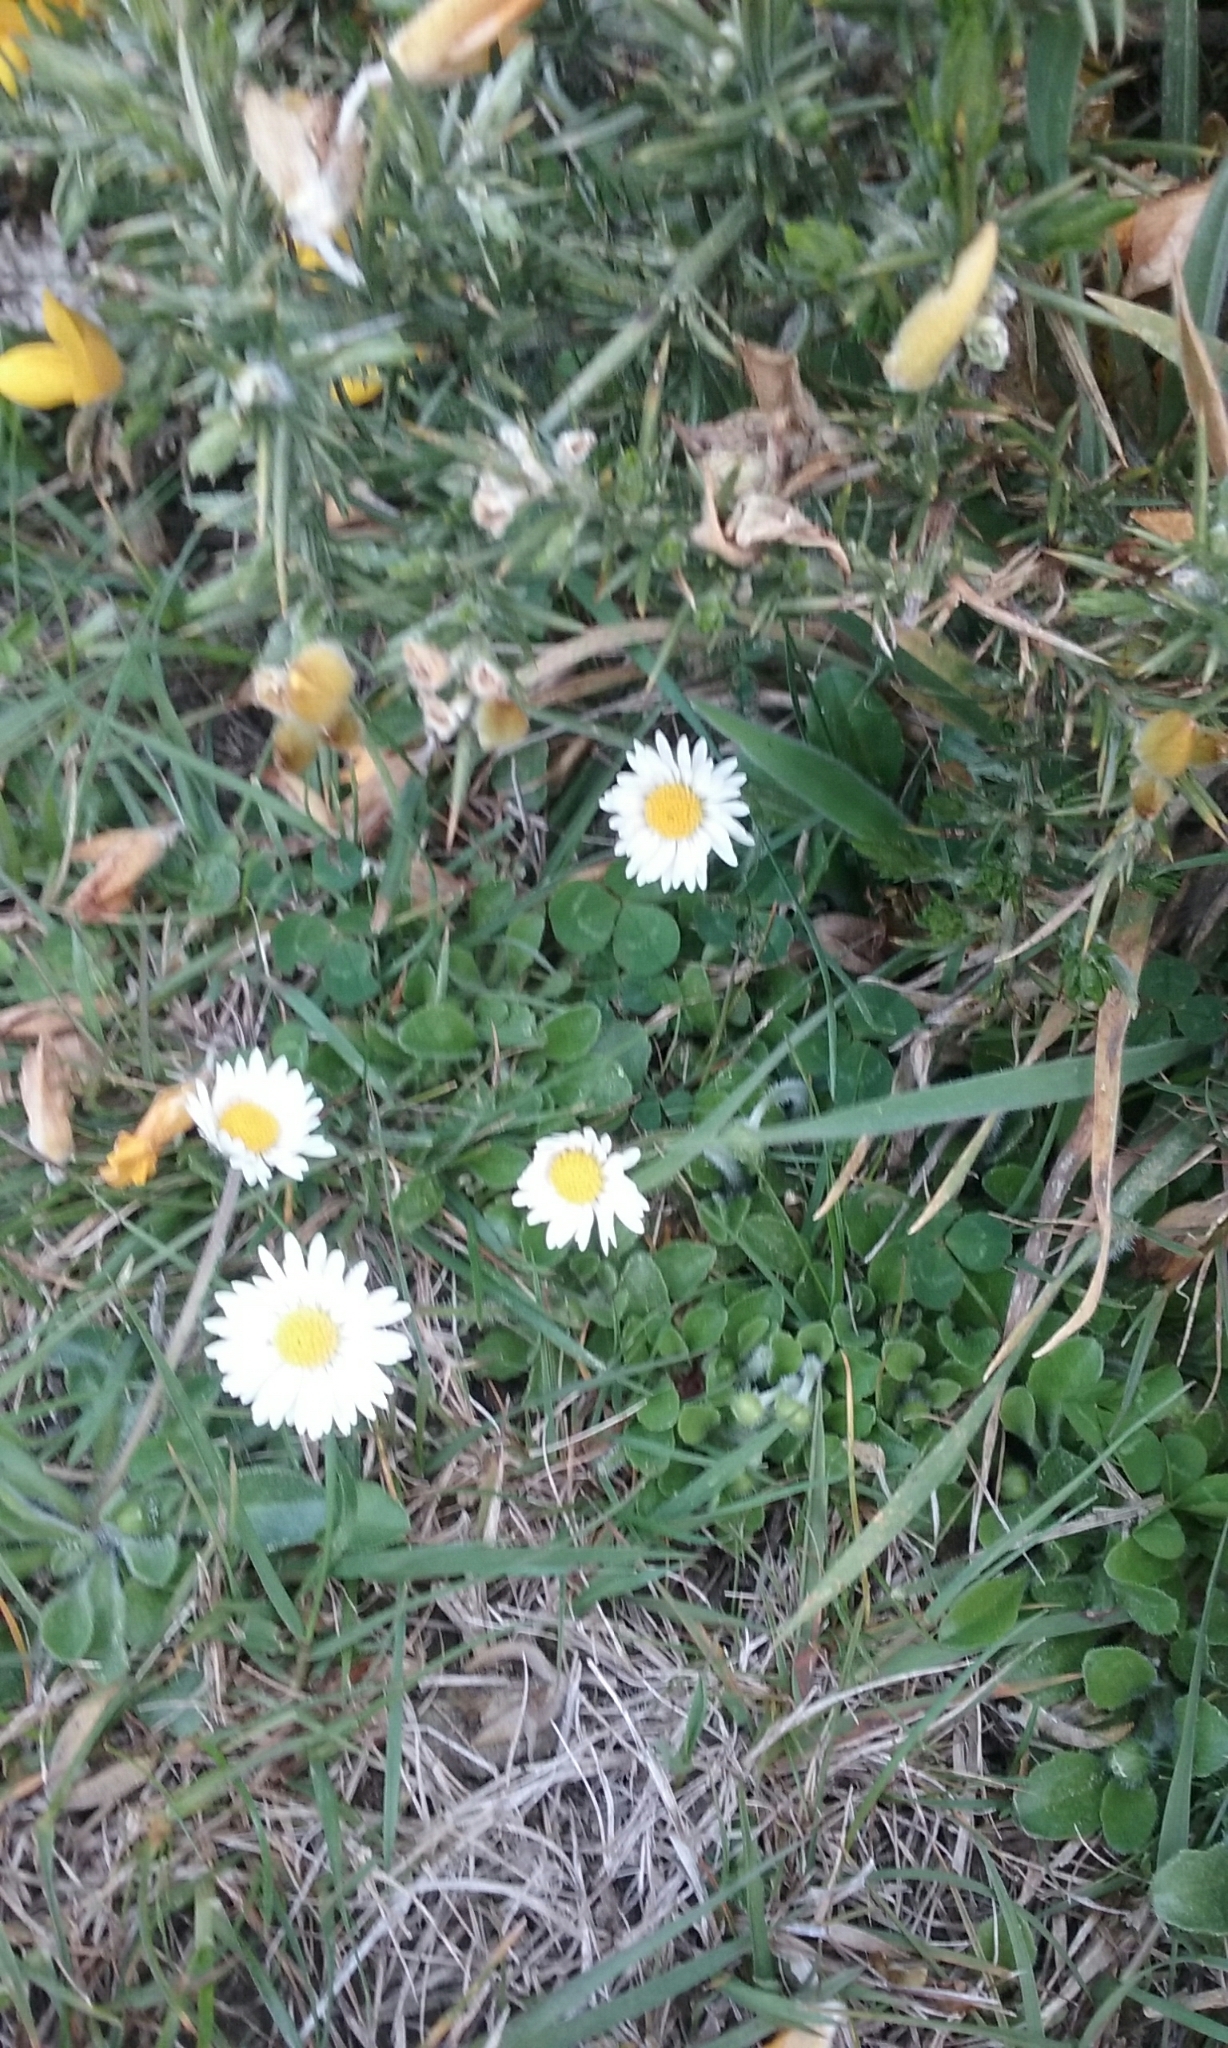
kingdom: Plantae
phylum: Tracheophyta
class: Magnoliopsida
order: Asterales
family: Asteraceae
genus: Bellis
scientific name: Bellis perennis
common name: Lawndaisy
